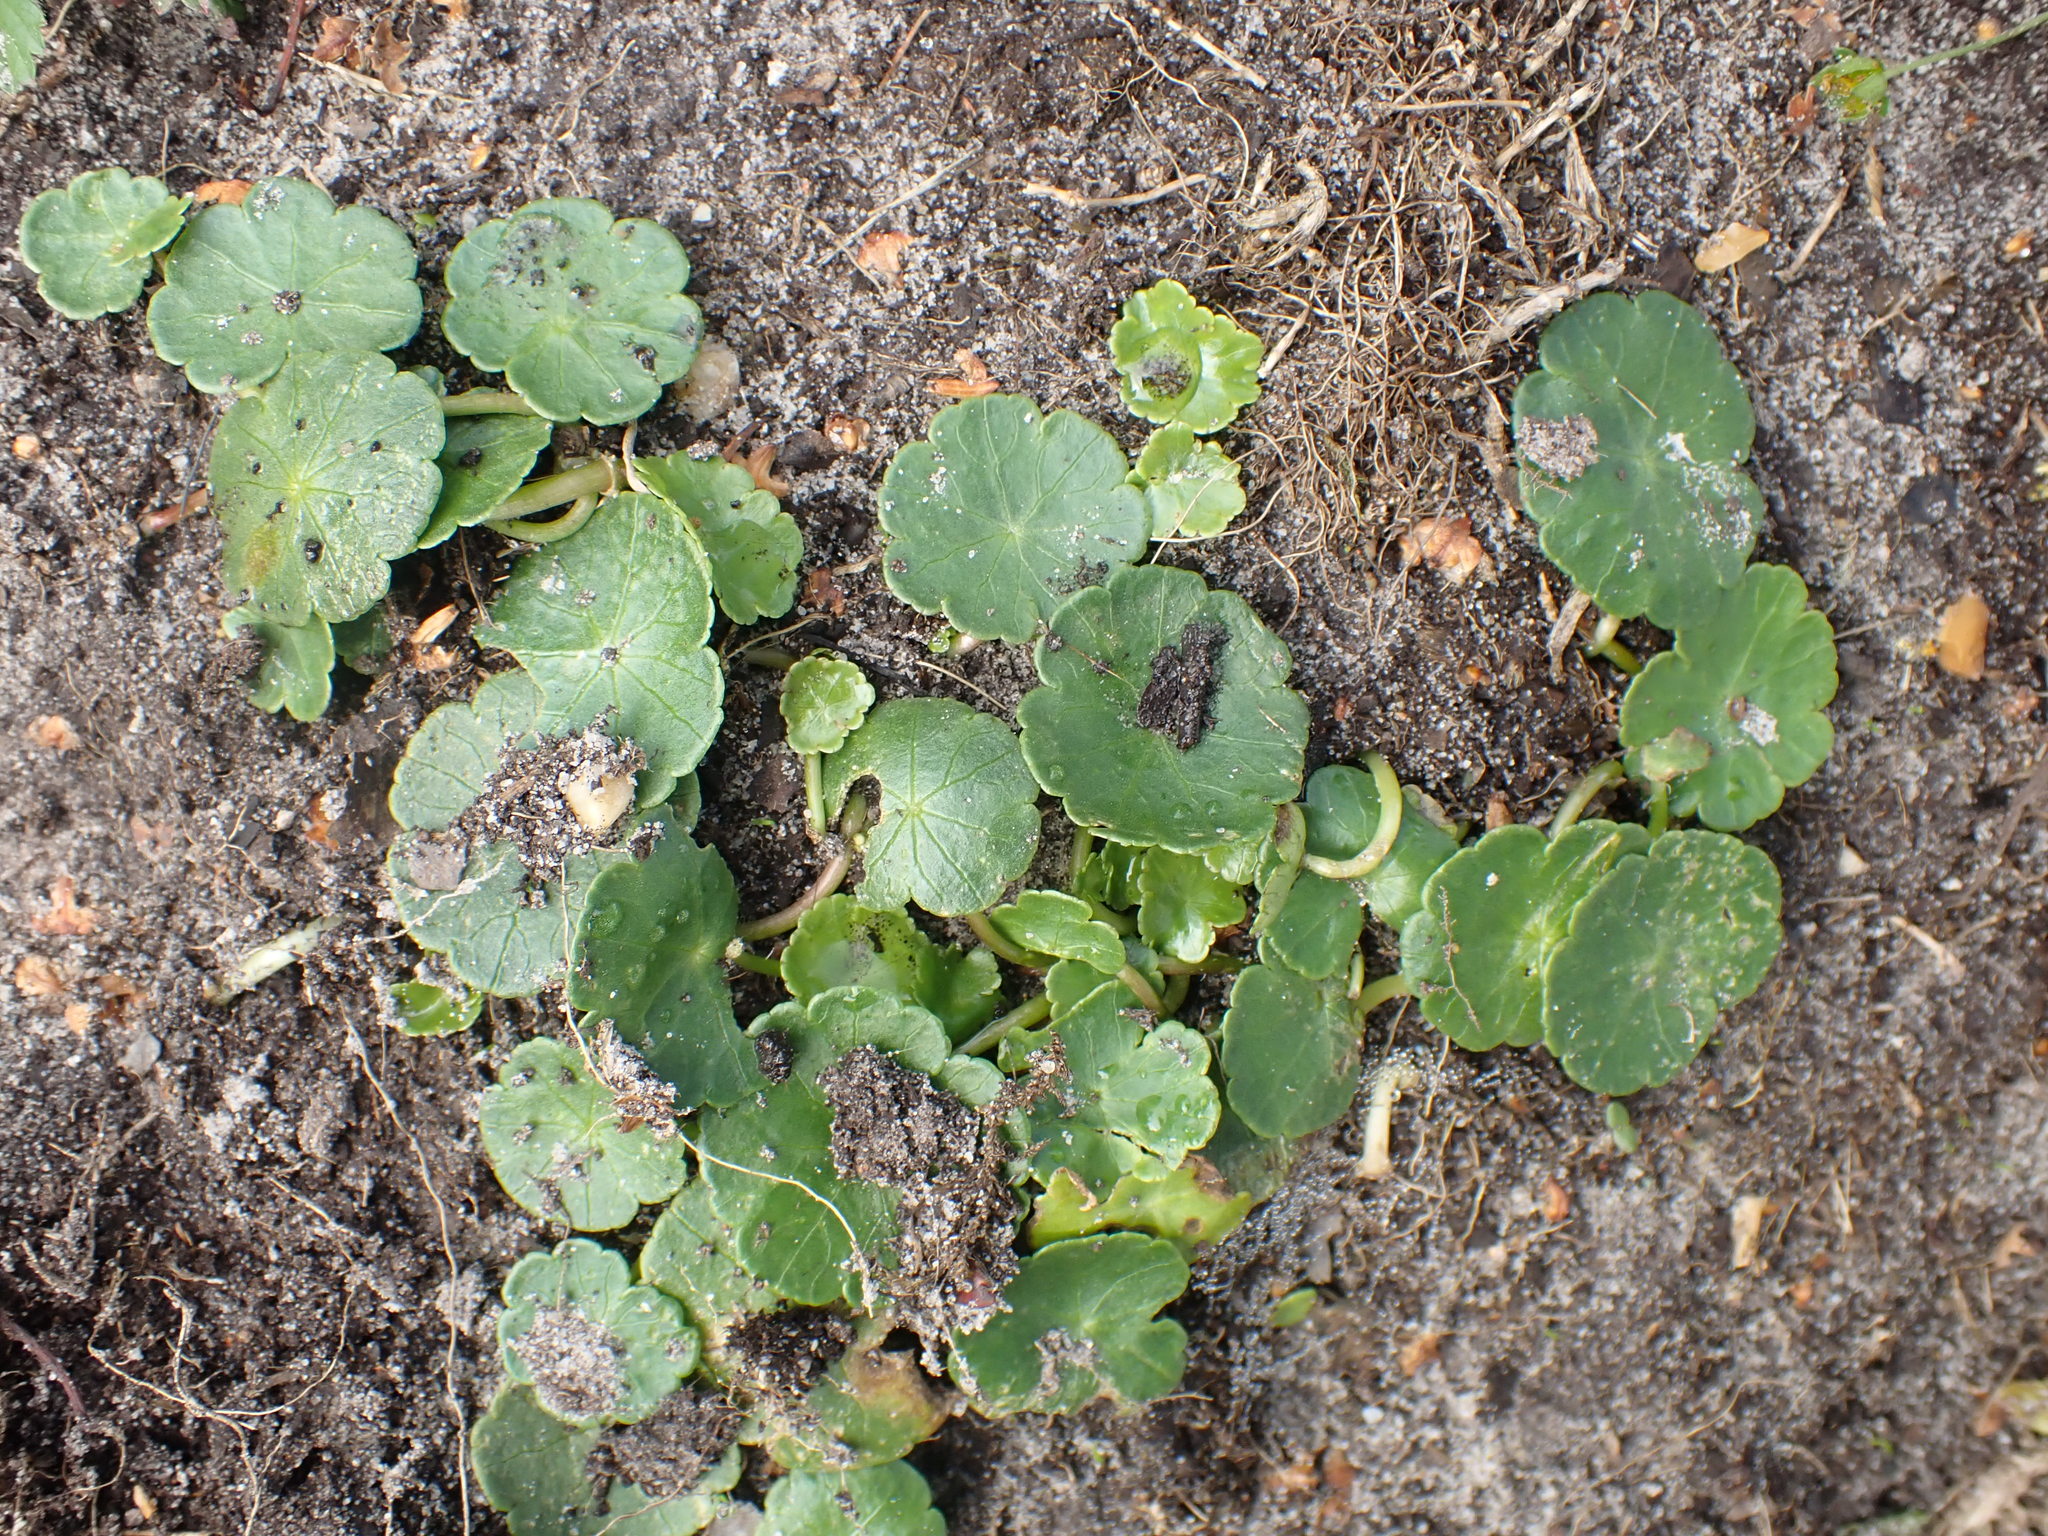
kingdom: Plantae
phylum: Tracheophyta
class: Magnoliopsida
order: Apiales
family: Araliaceae
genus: Hydrocotyle
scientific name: Hydrocotyle vulgaris
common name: Marsh pennywort
